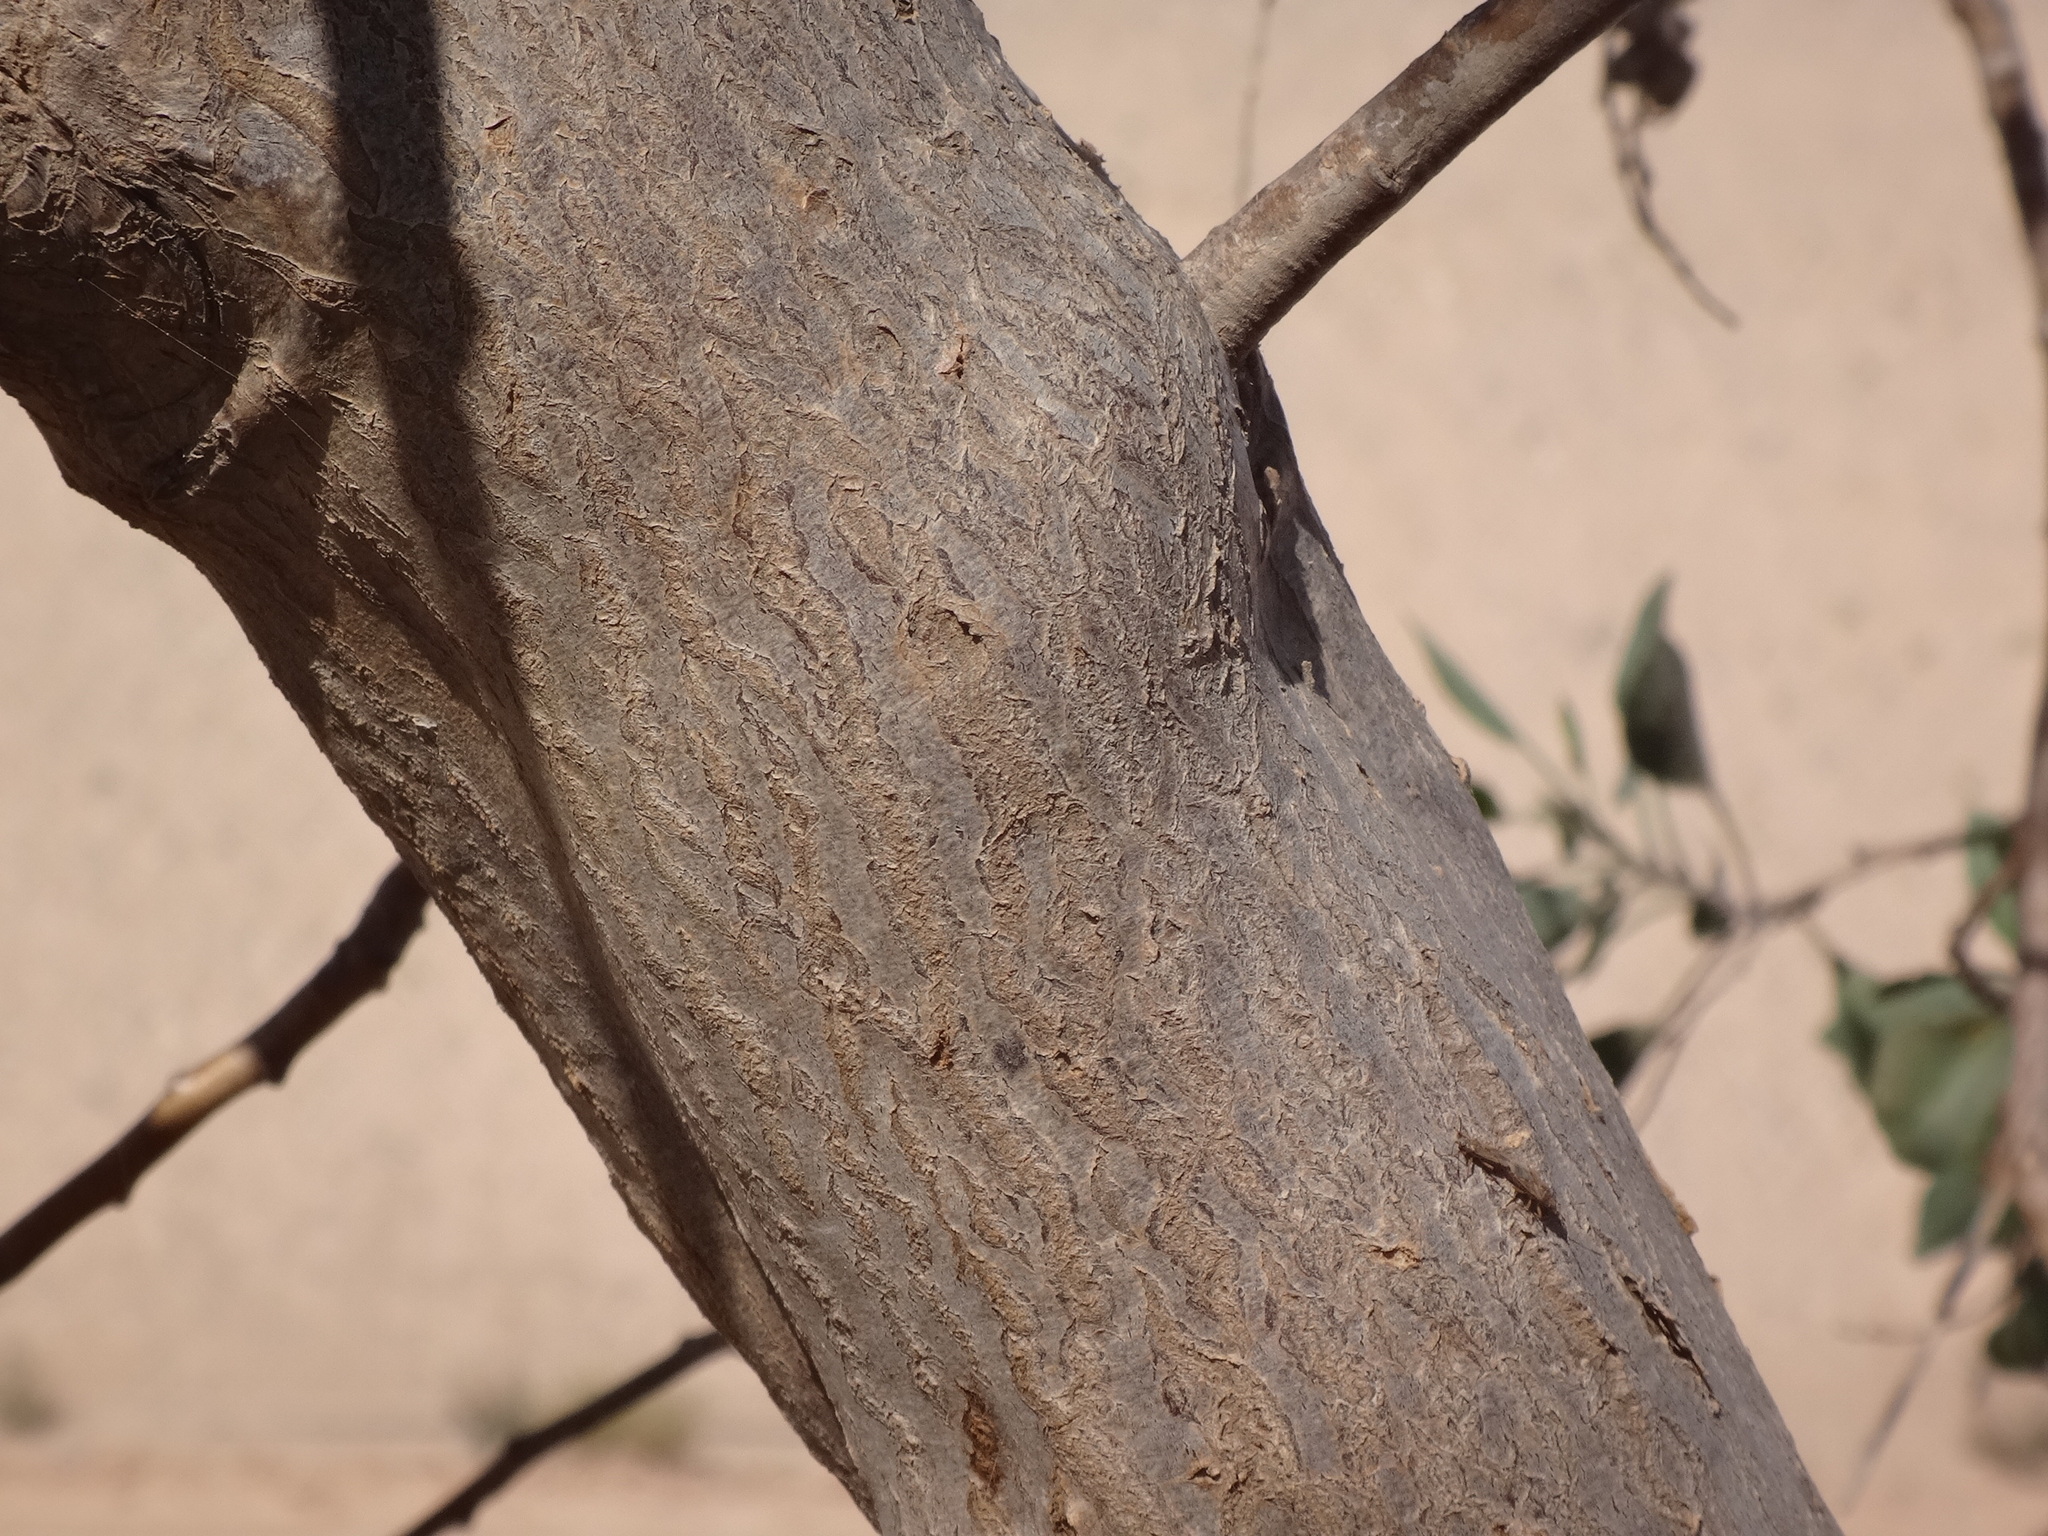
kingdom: Plantae
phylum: Tracheophyta
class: Magnoliopsida
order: Solanales
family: Solanaceae
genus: Nicotiana
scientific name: Nicotiana glauca
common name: Tree tobacco
